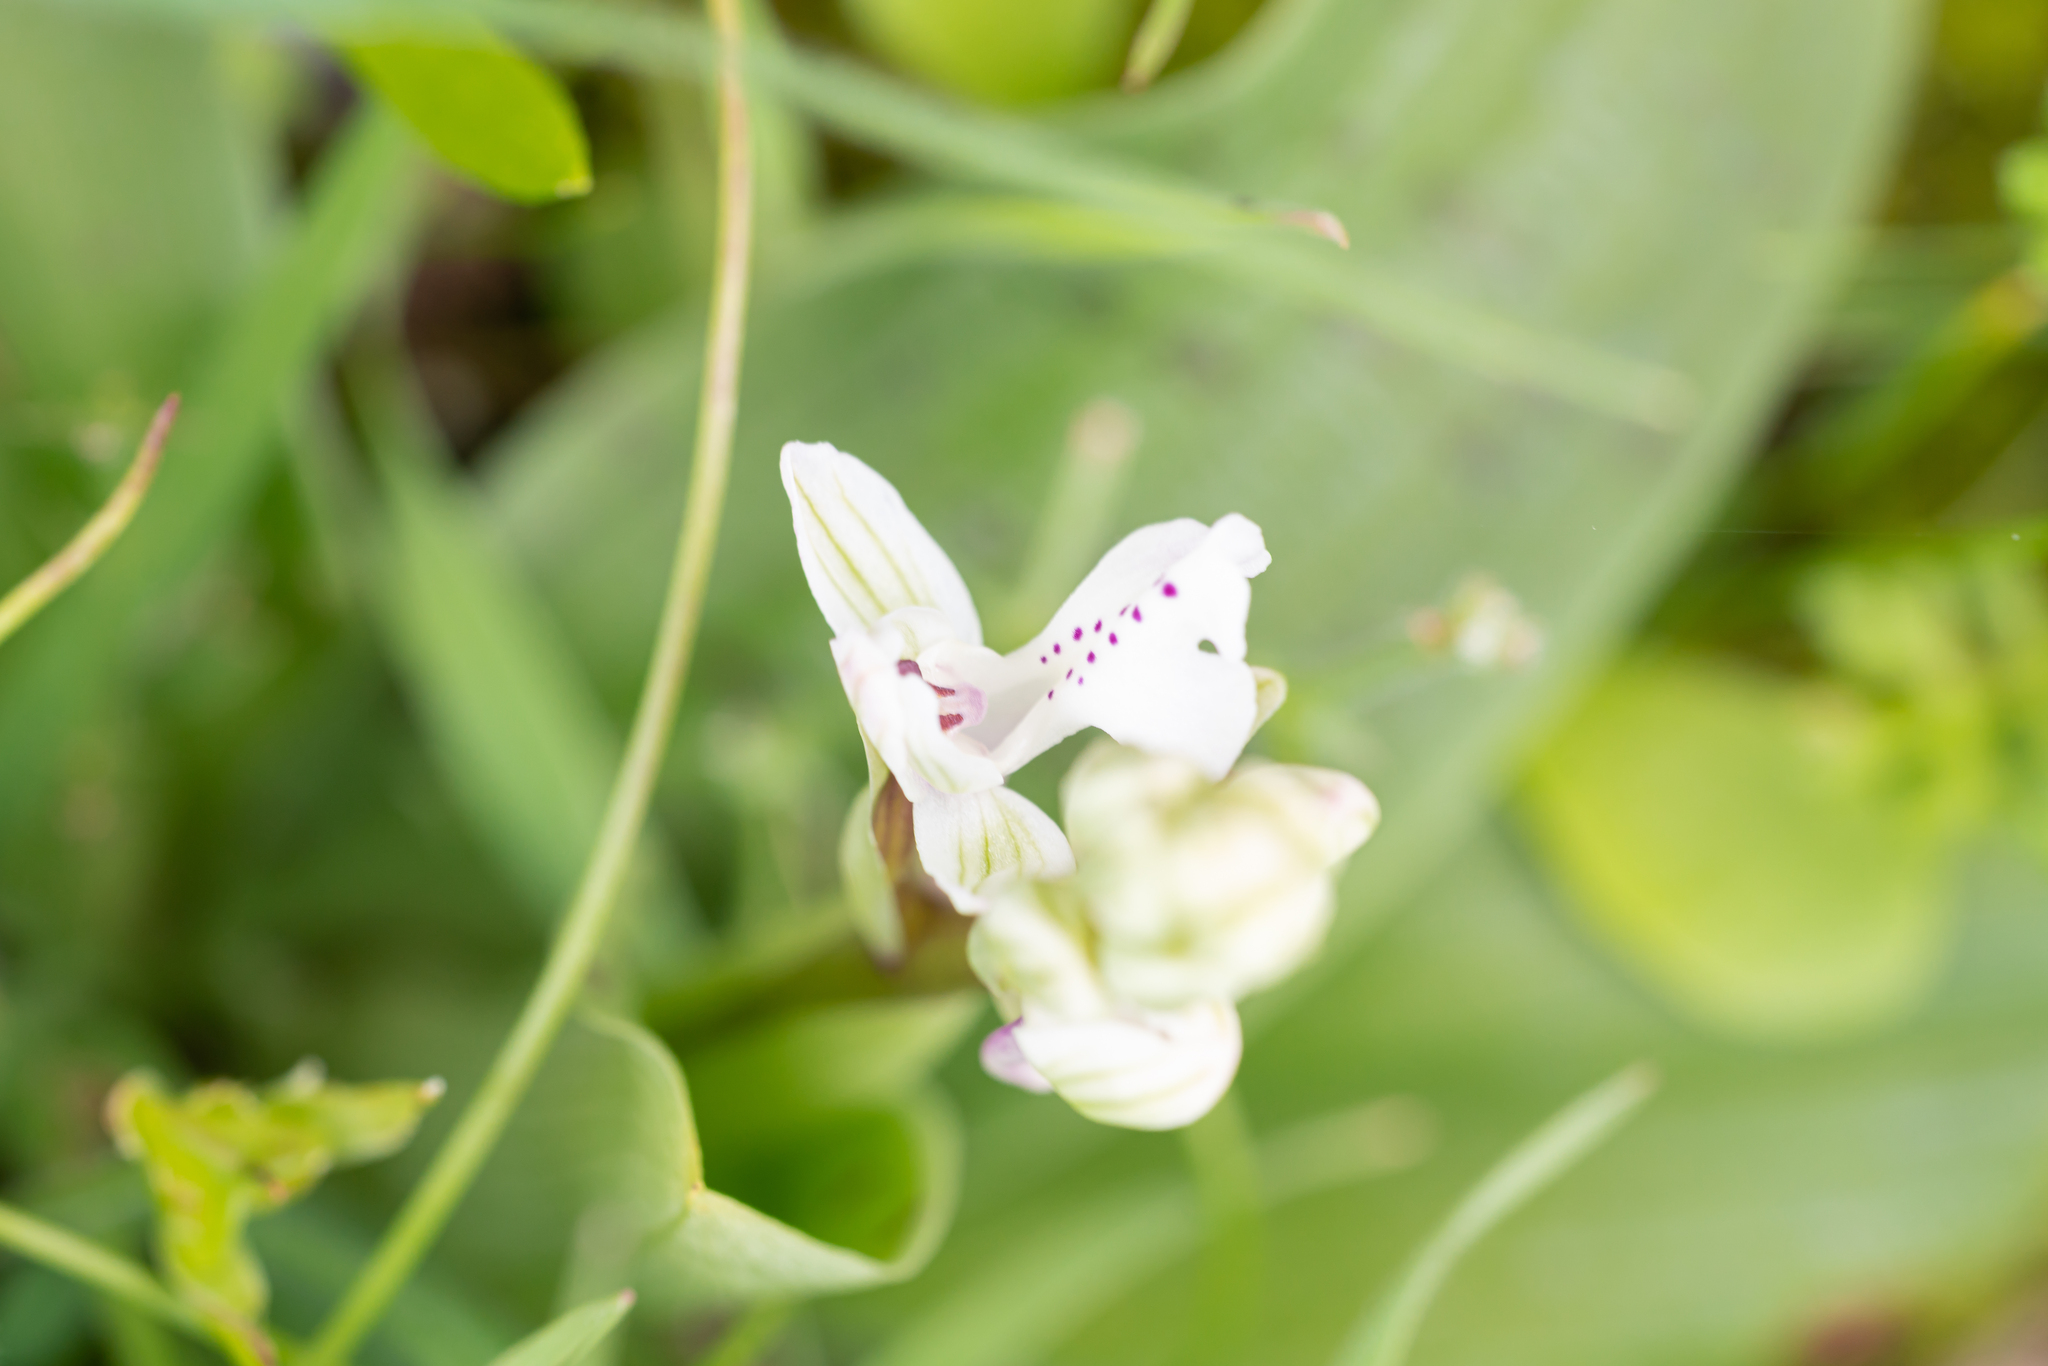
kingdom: Plantae
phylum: Tracheophyta
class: Liliopsida
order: Asparagales
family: Orchidaceae
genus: Orchis
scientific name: Orchis anatolica
